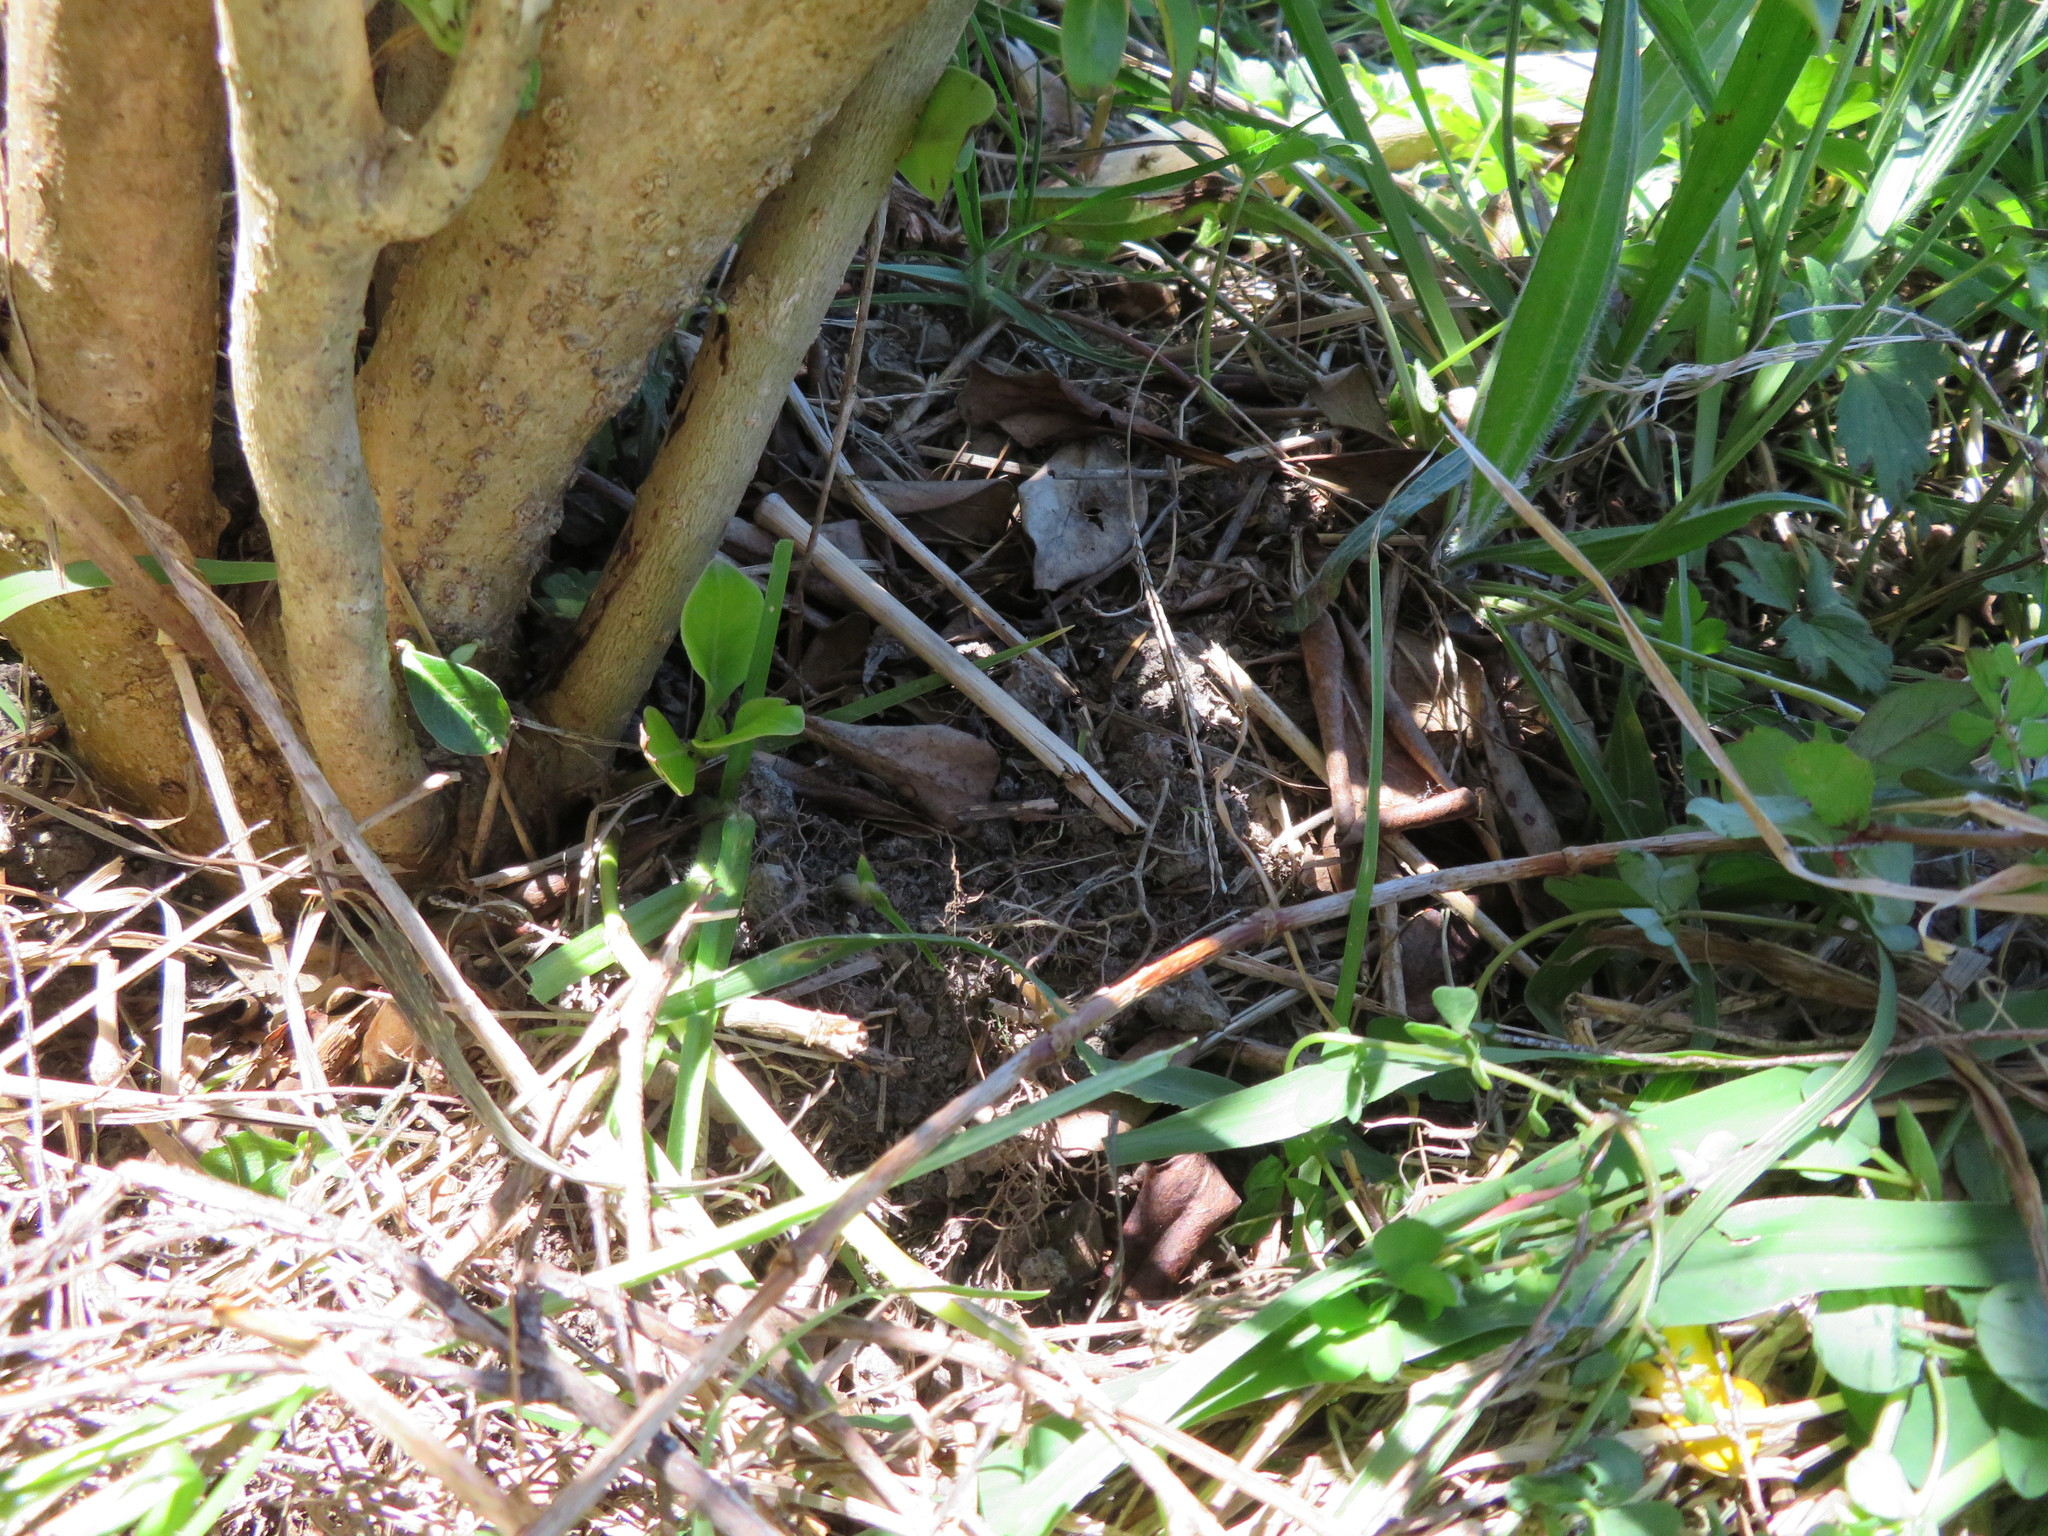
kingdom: Plantae
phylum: Tracheophyta
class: Liliopsida
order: Poales
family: Poaceae
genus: Cenchrus
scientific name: Cenchrus clandestinus
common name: Kikuyugrass
